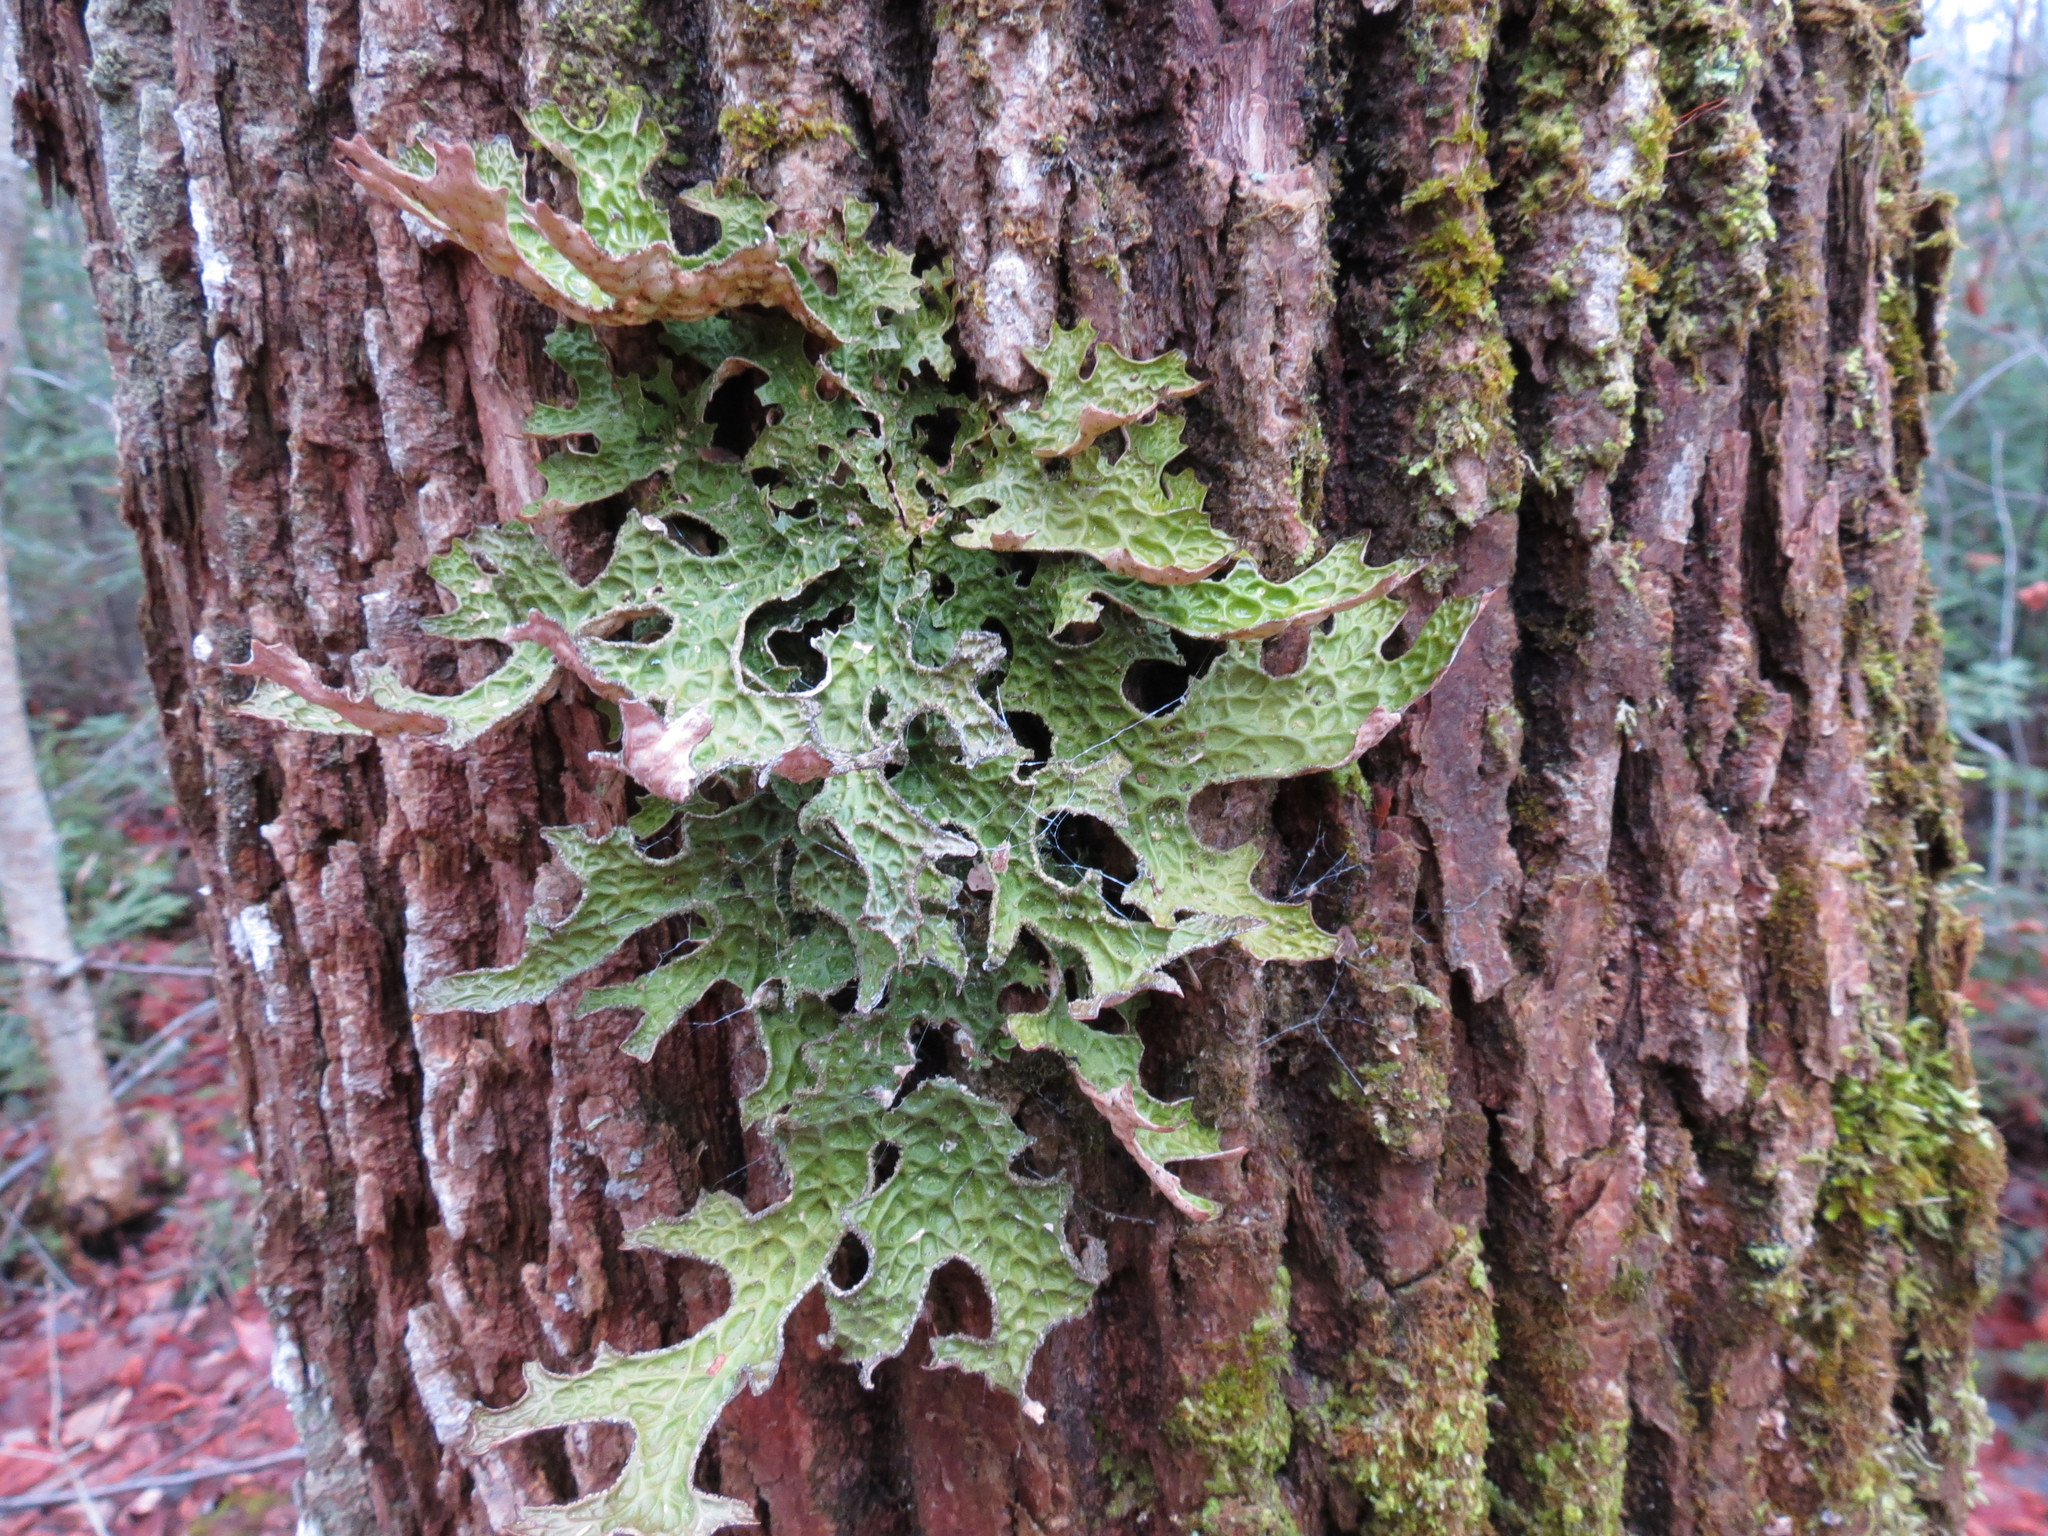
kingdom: Fungi
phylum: Ascomycota
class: Lecanoromycetes
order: Peltigerales
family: Lobariaceae
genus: Lobaria
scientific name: Lobaria pulmonaria
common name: Lungwort
